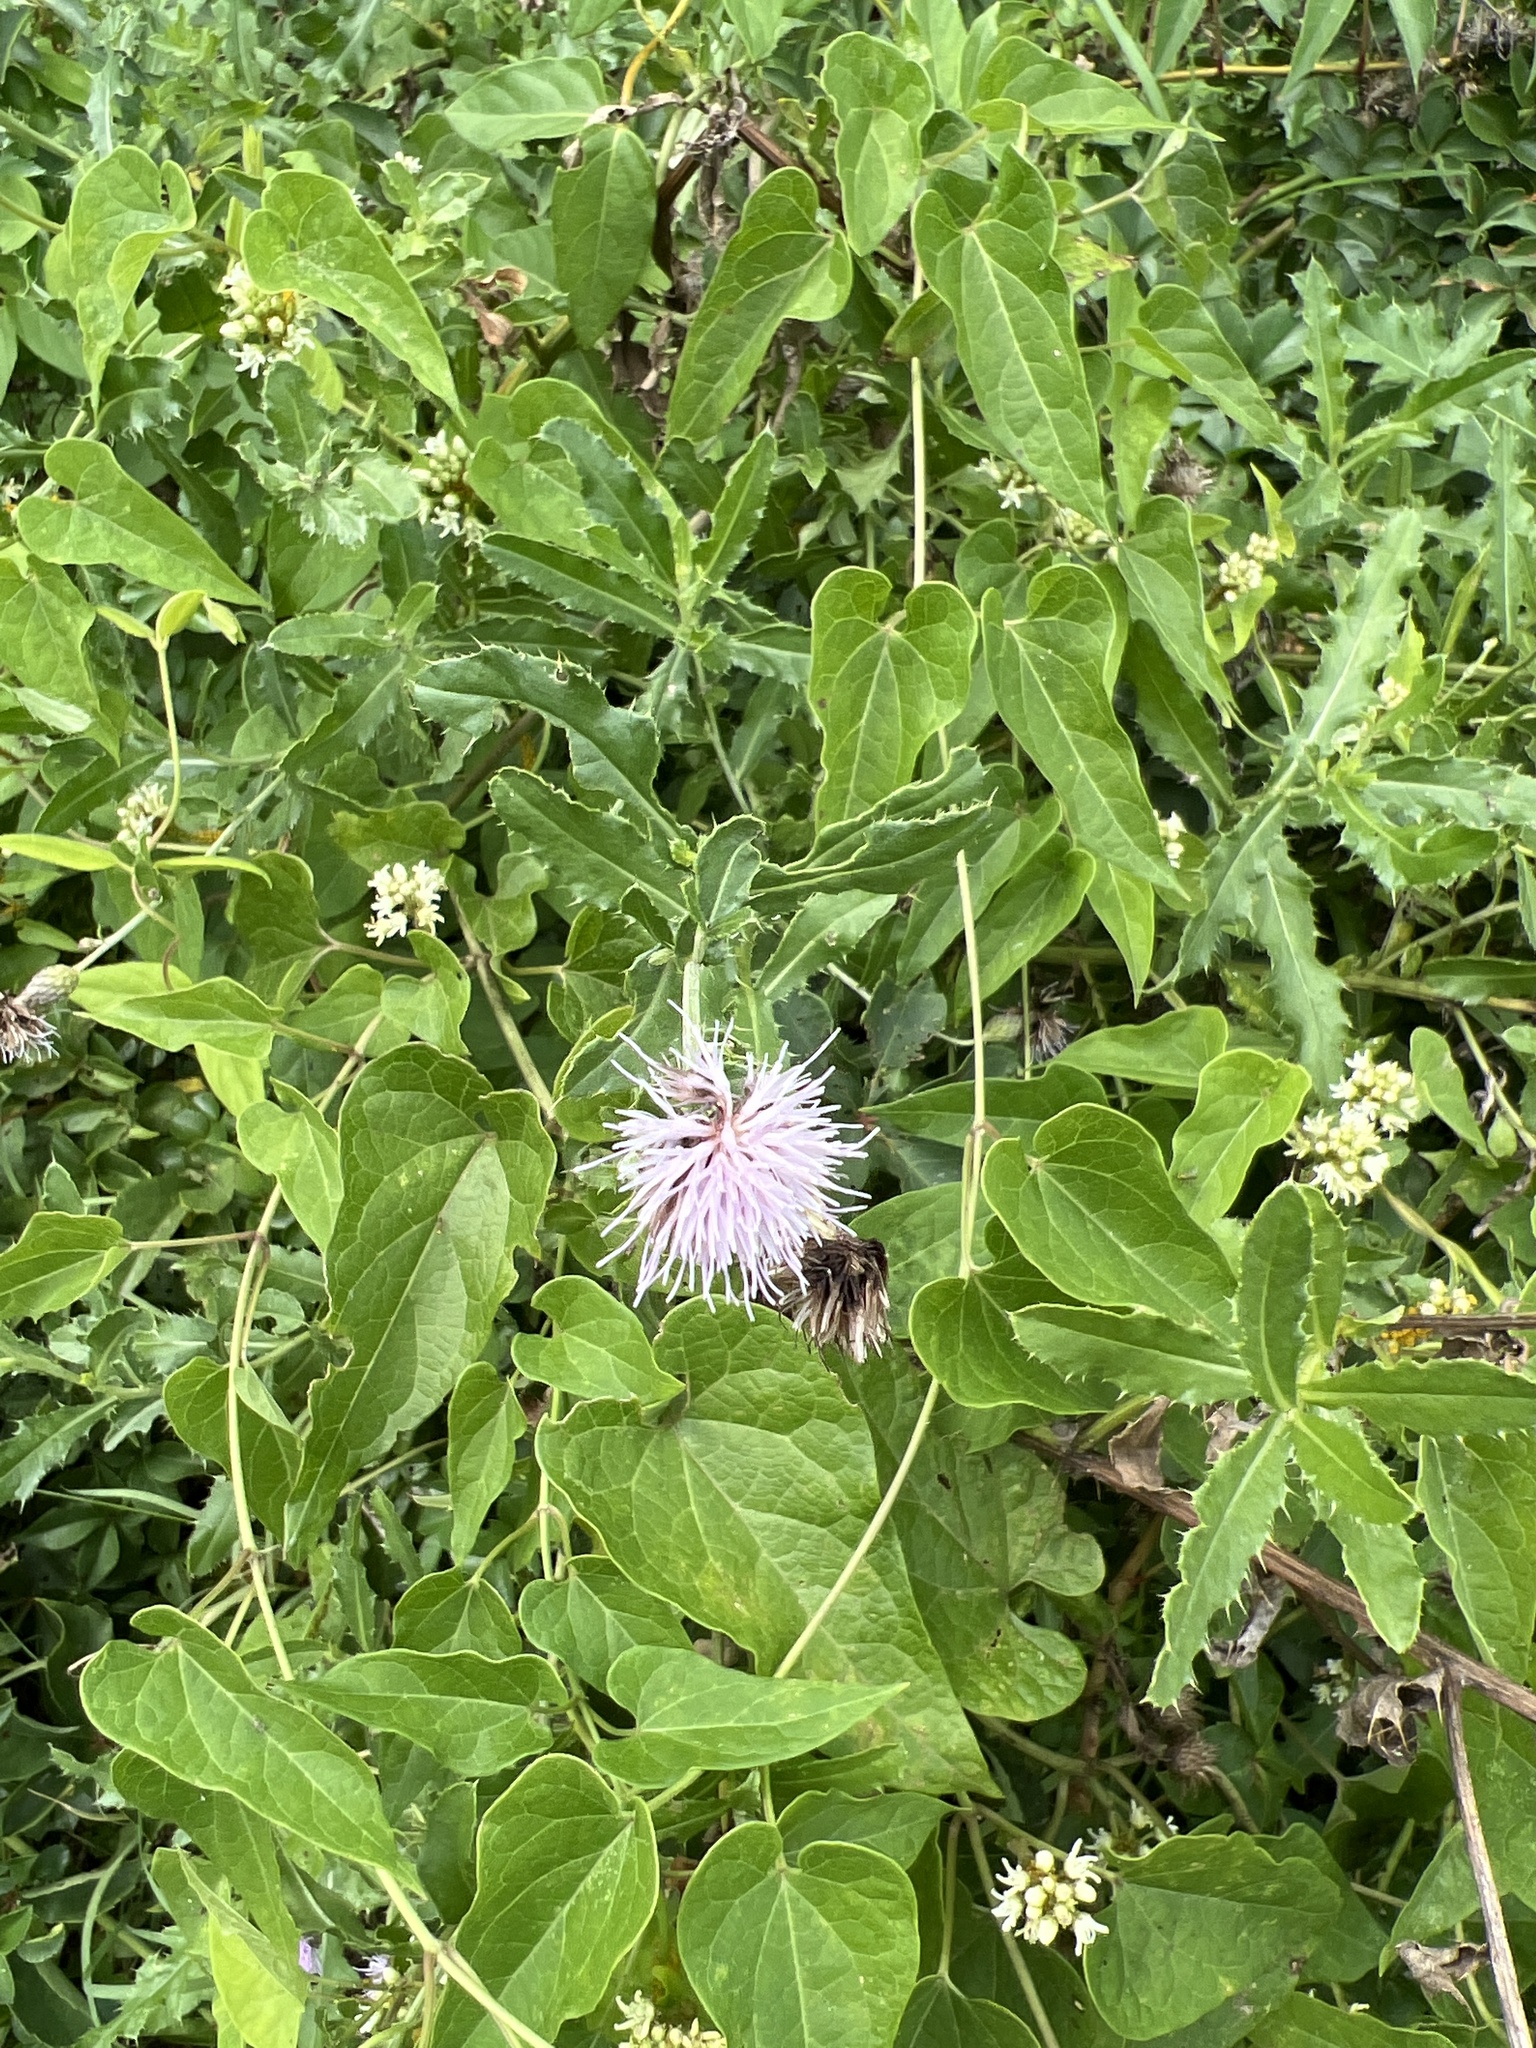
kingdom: Plantae
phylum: Tracheophyta
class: Magnoliopsida
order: Lamiales
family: Lamiaceae
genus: Monarda
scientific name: Monarda fistulosa
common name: Purple beebalm
